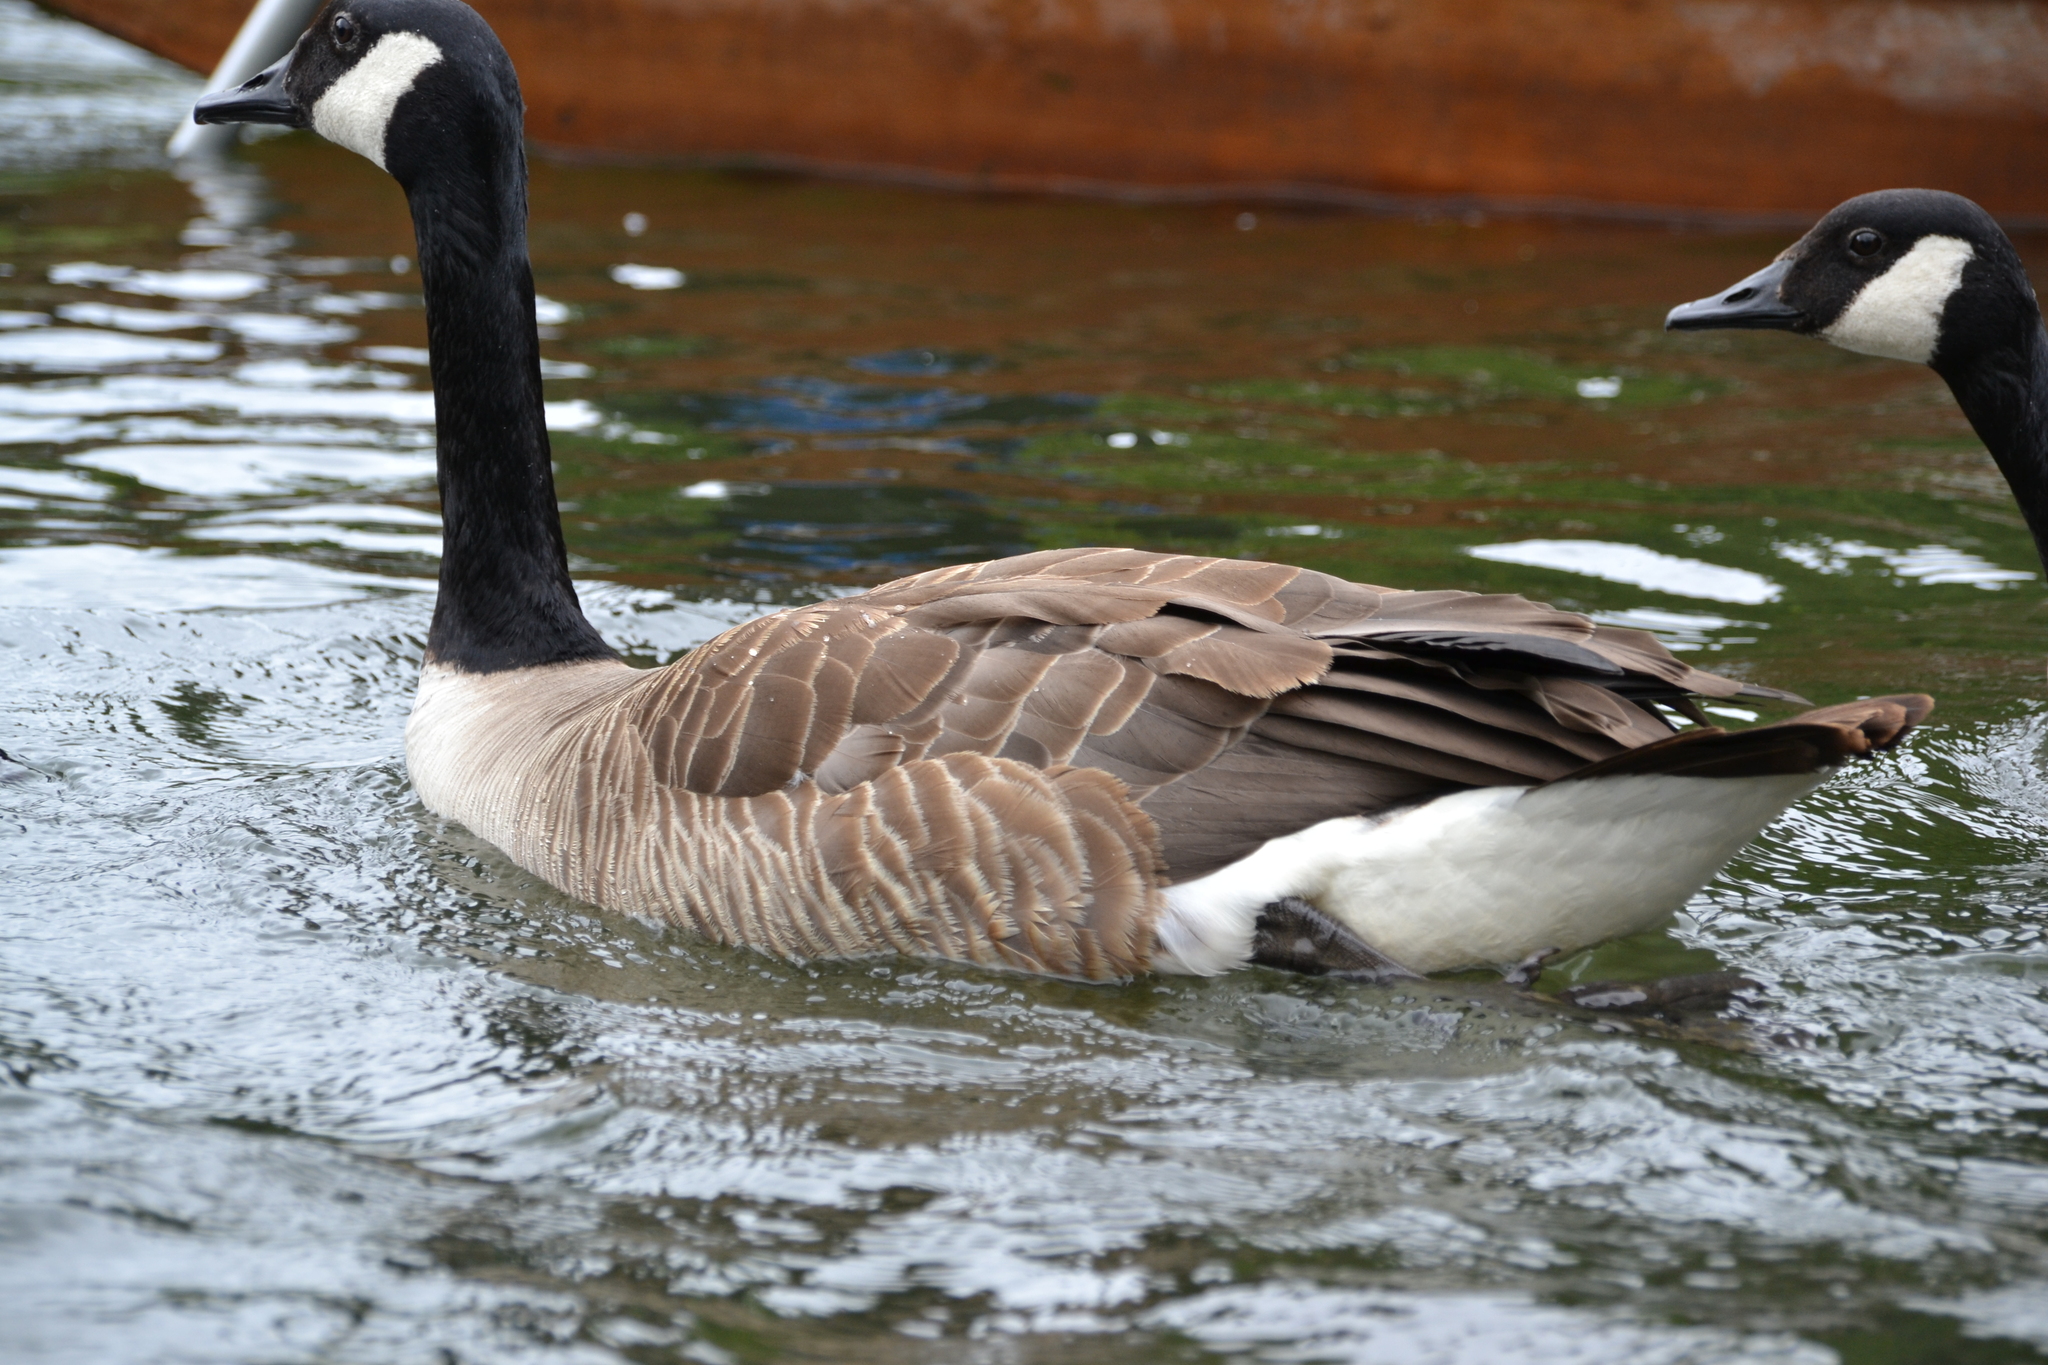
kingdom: Animalia
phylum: Chordata
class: Aves
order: Anseriformes
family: Anatidae
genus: Branta
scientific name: Branta canadensis
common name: Canada goose
